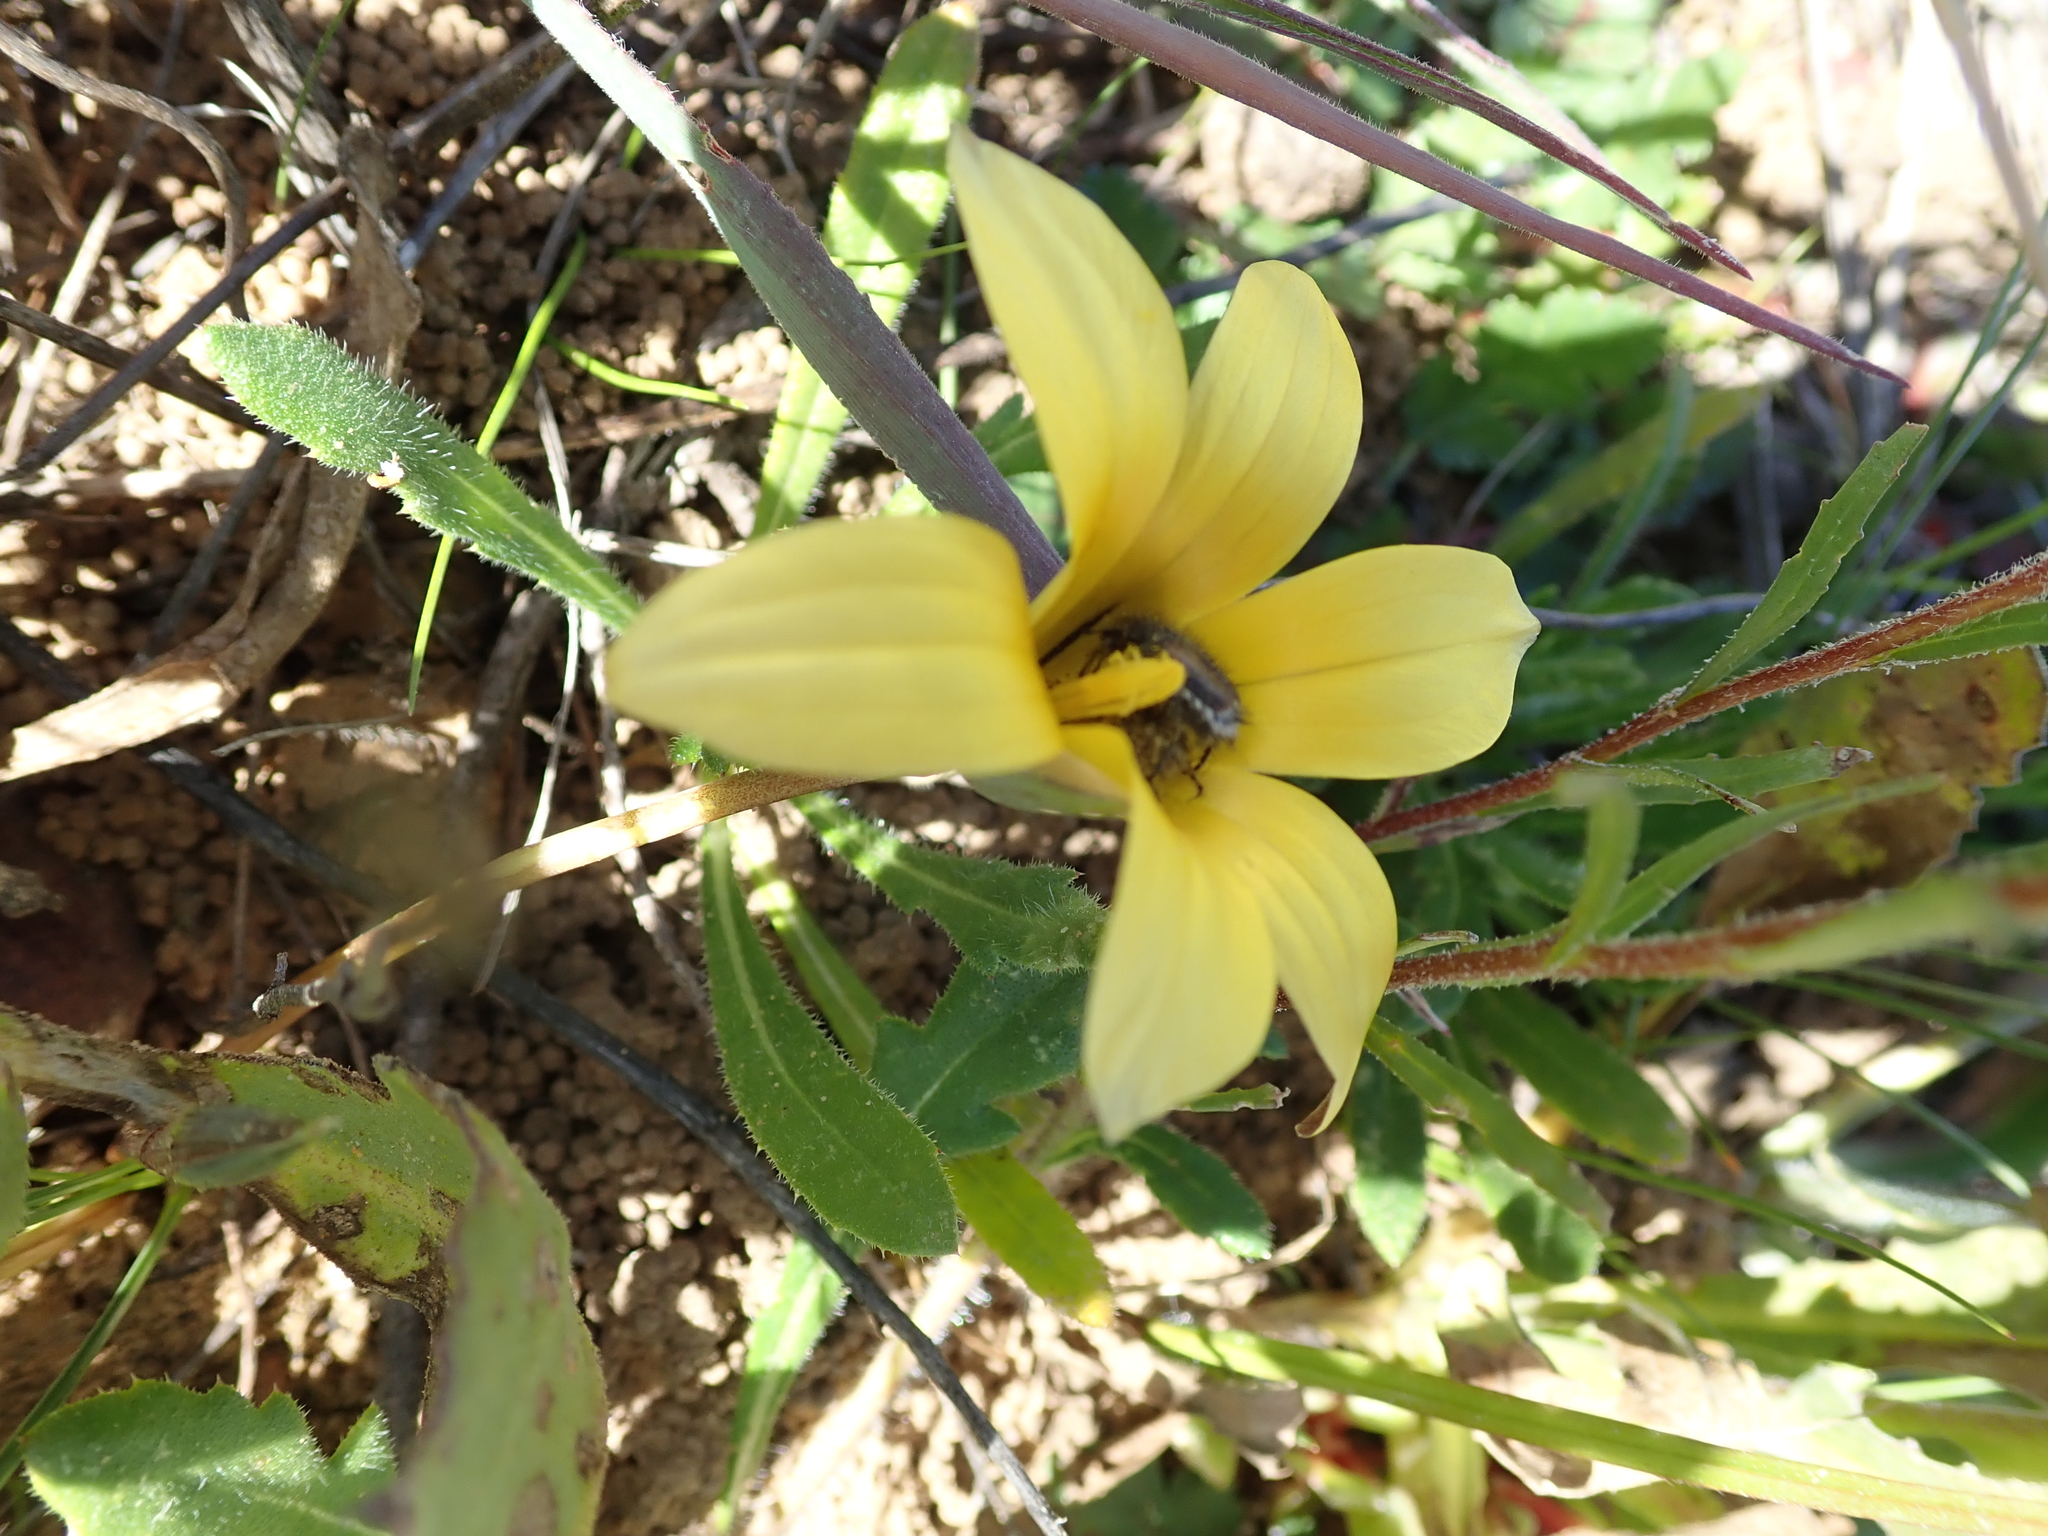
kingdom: Plantae
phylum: Tracheophyta
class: Liliopsida
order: Asparagales
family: Iridaceae
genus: Romulea
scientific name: Romulea montana
